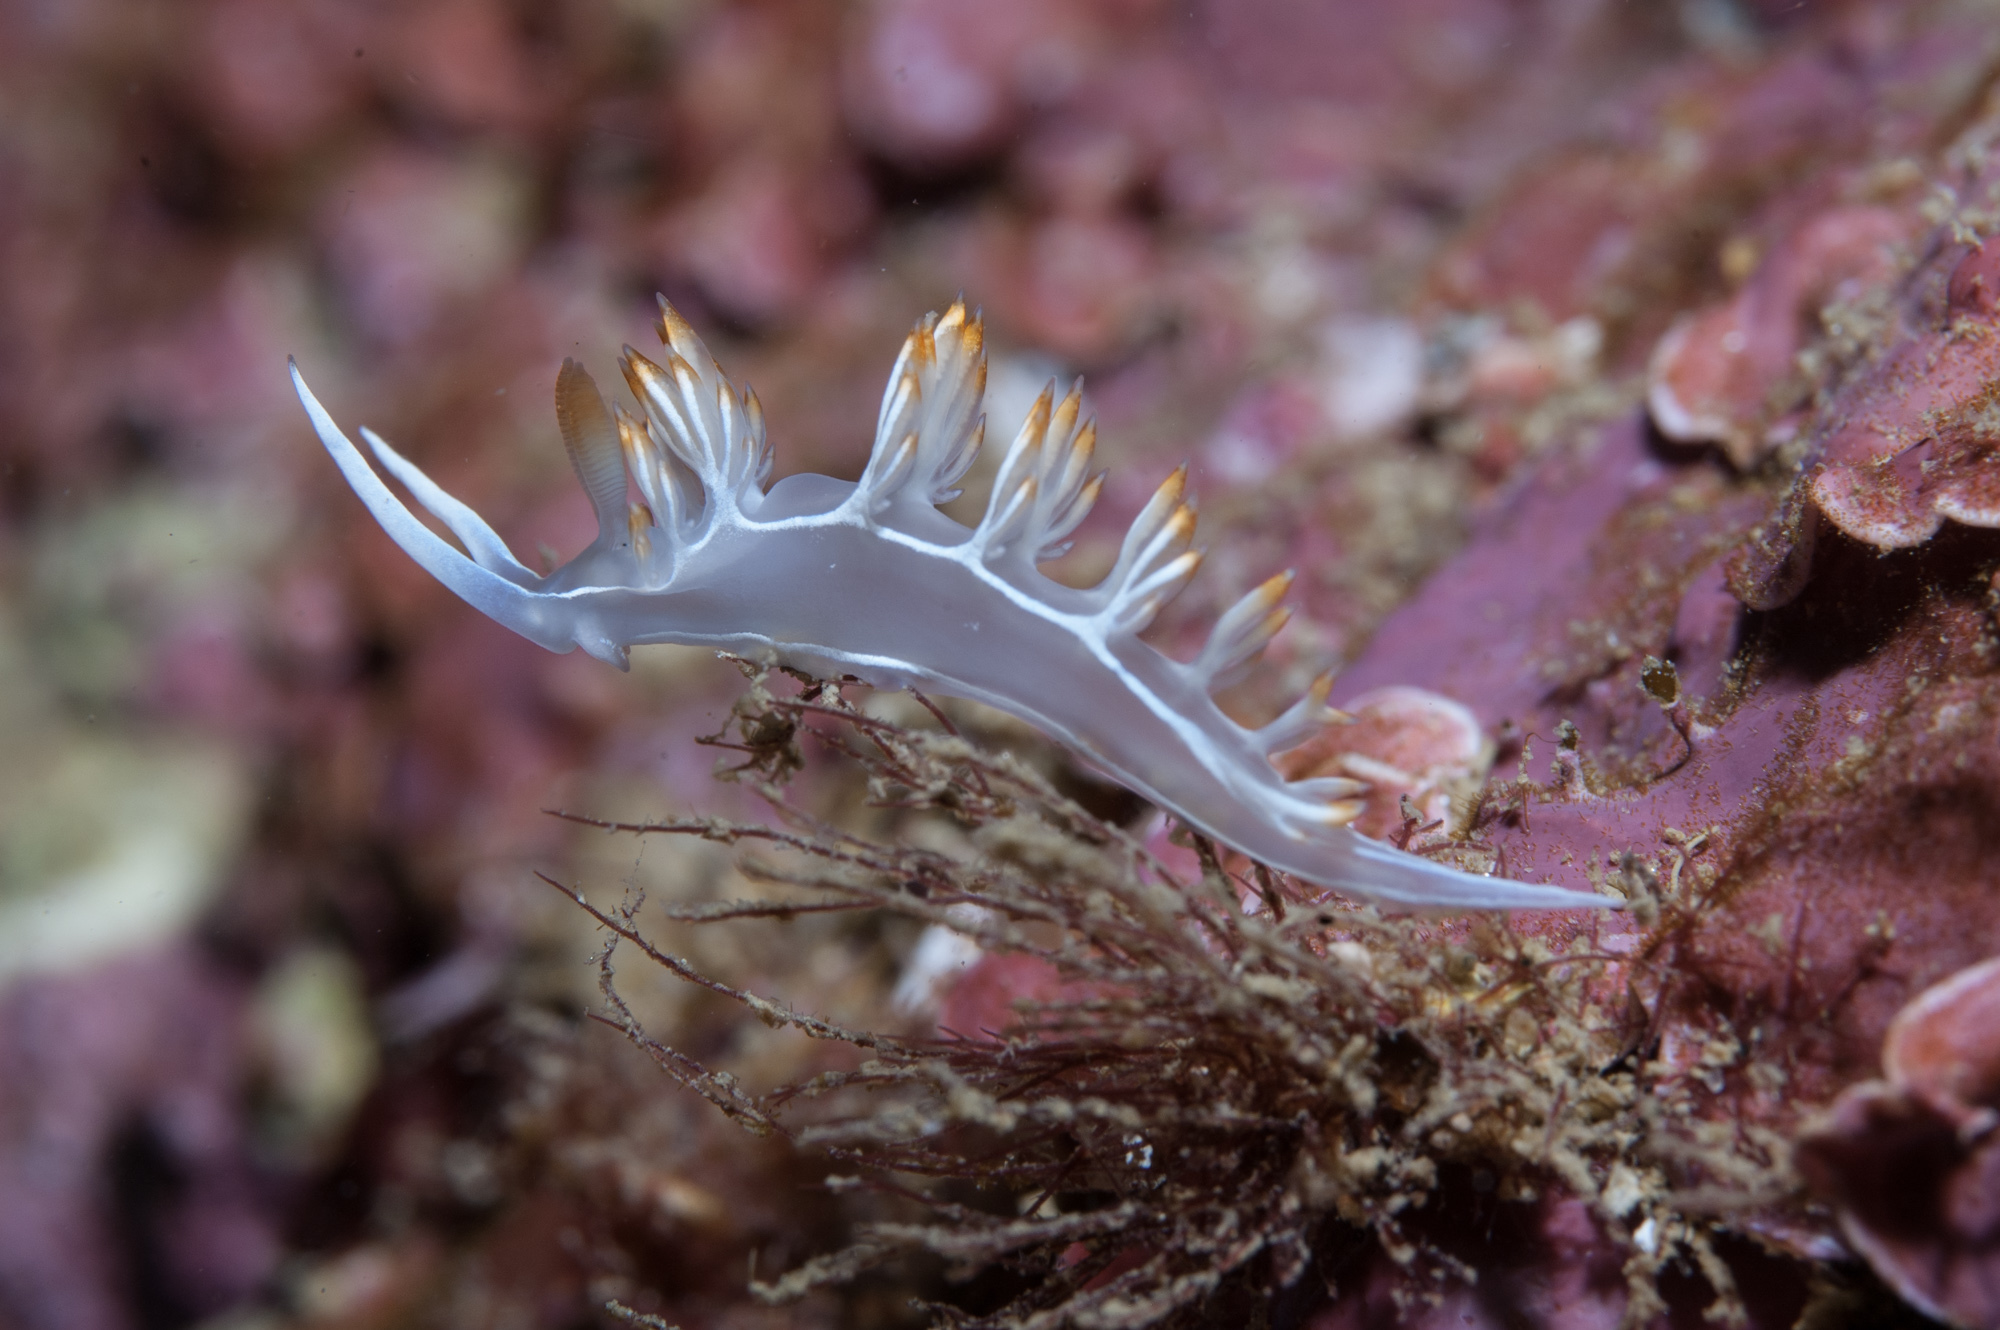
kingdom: Animalia
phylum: Mollusca
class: Gastropoda
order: Nudibranchia
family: Samlidae
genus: Luisella
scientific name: Luisella babai
